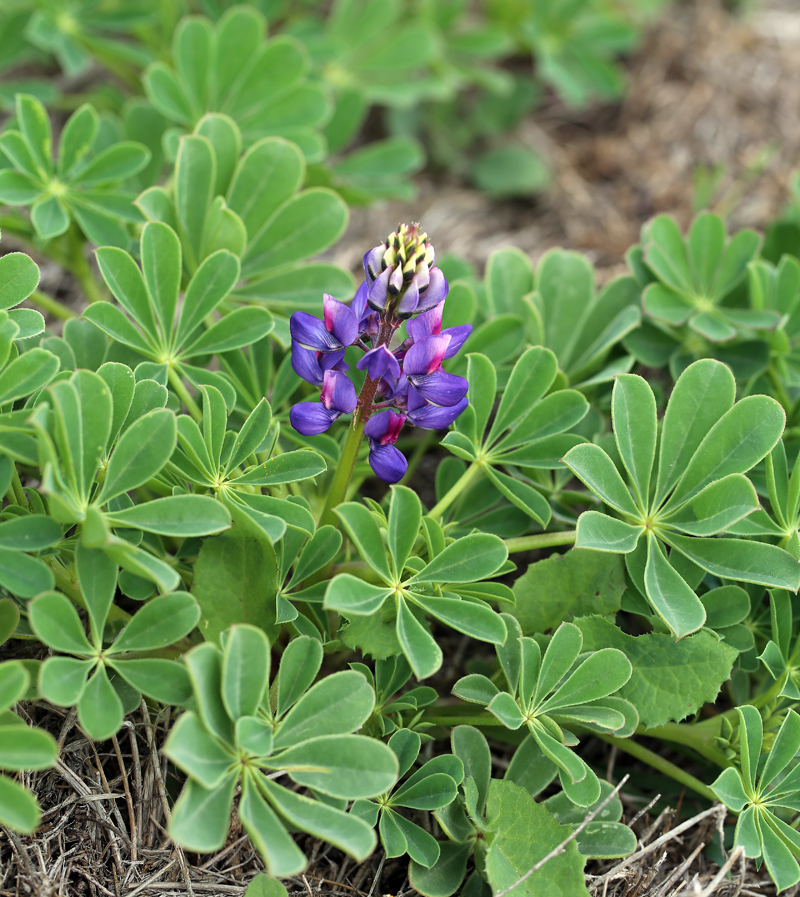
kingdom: Plantae
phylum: Tracheophyta
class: Magnoliopsida
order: Fabales
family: Fabaceae
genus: Lupinus
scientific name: Lupinus succulentus
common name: Arroyo lupine
